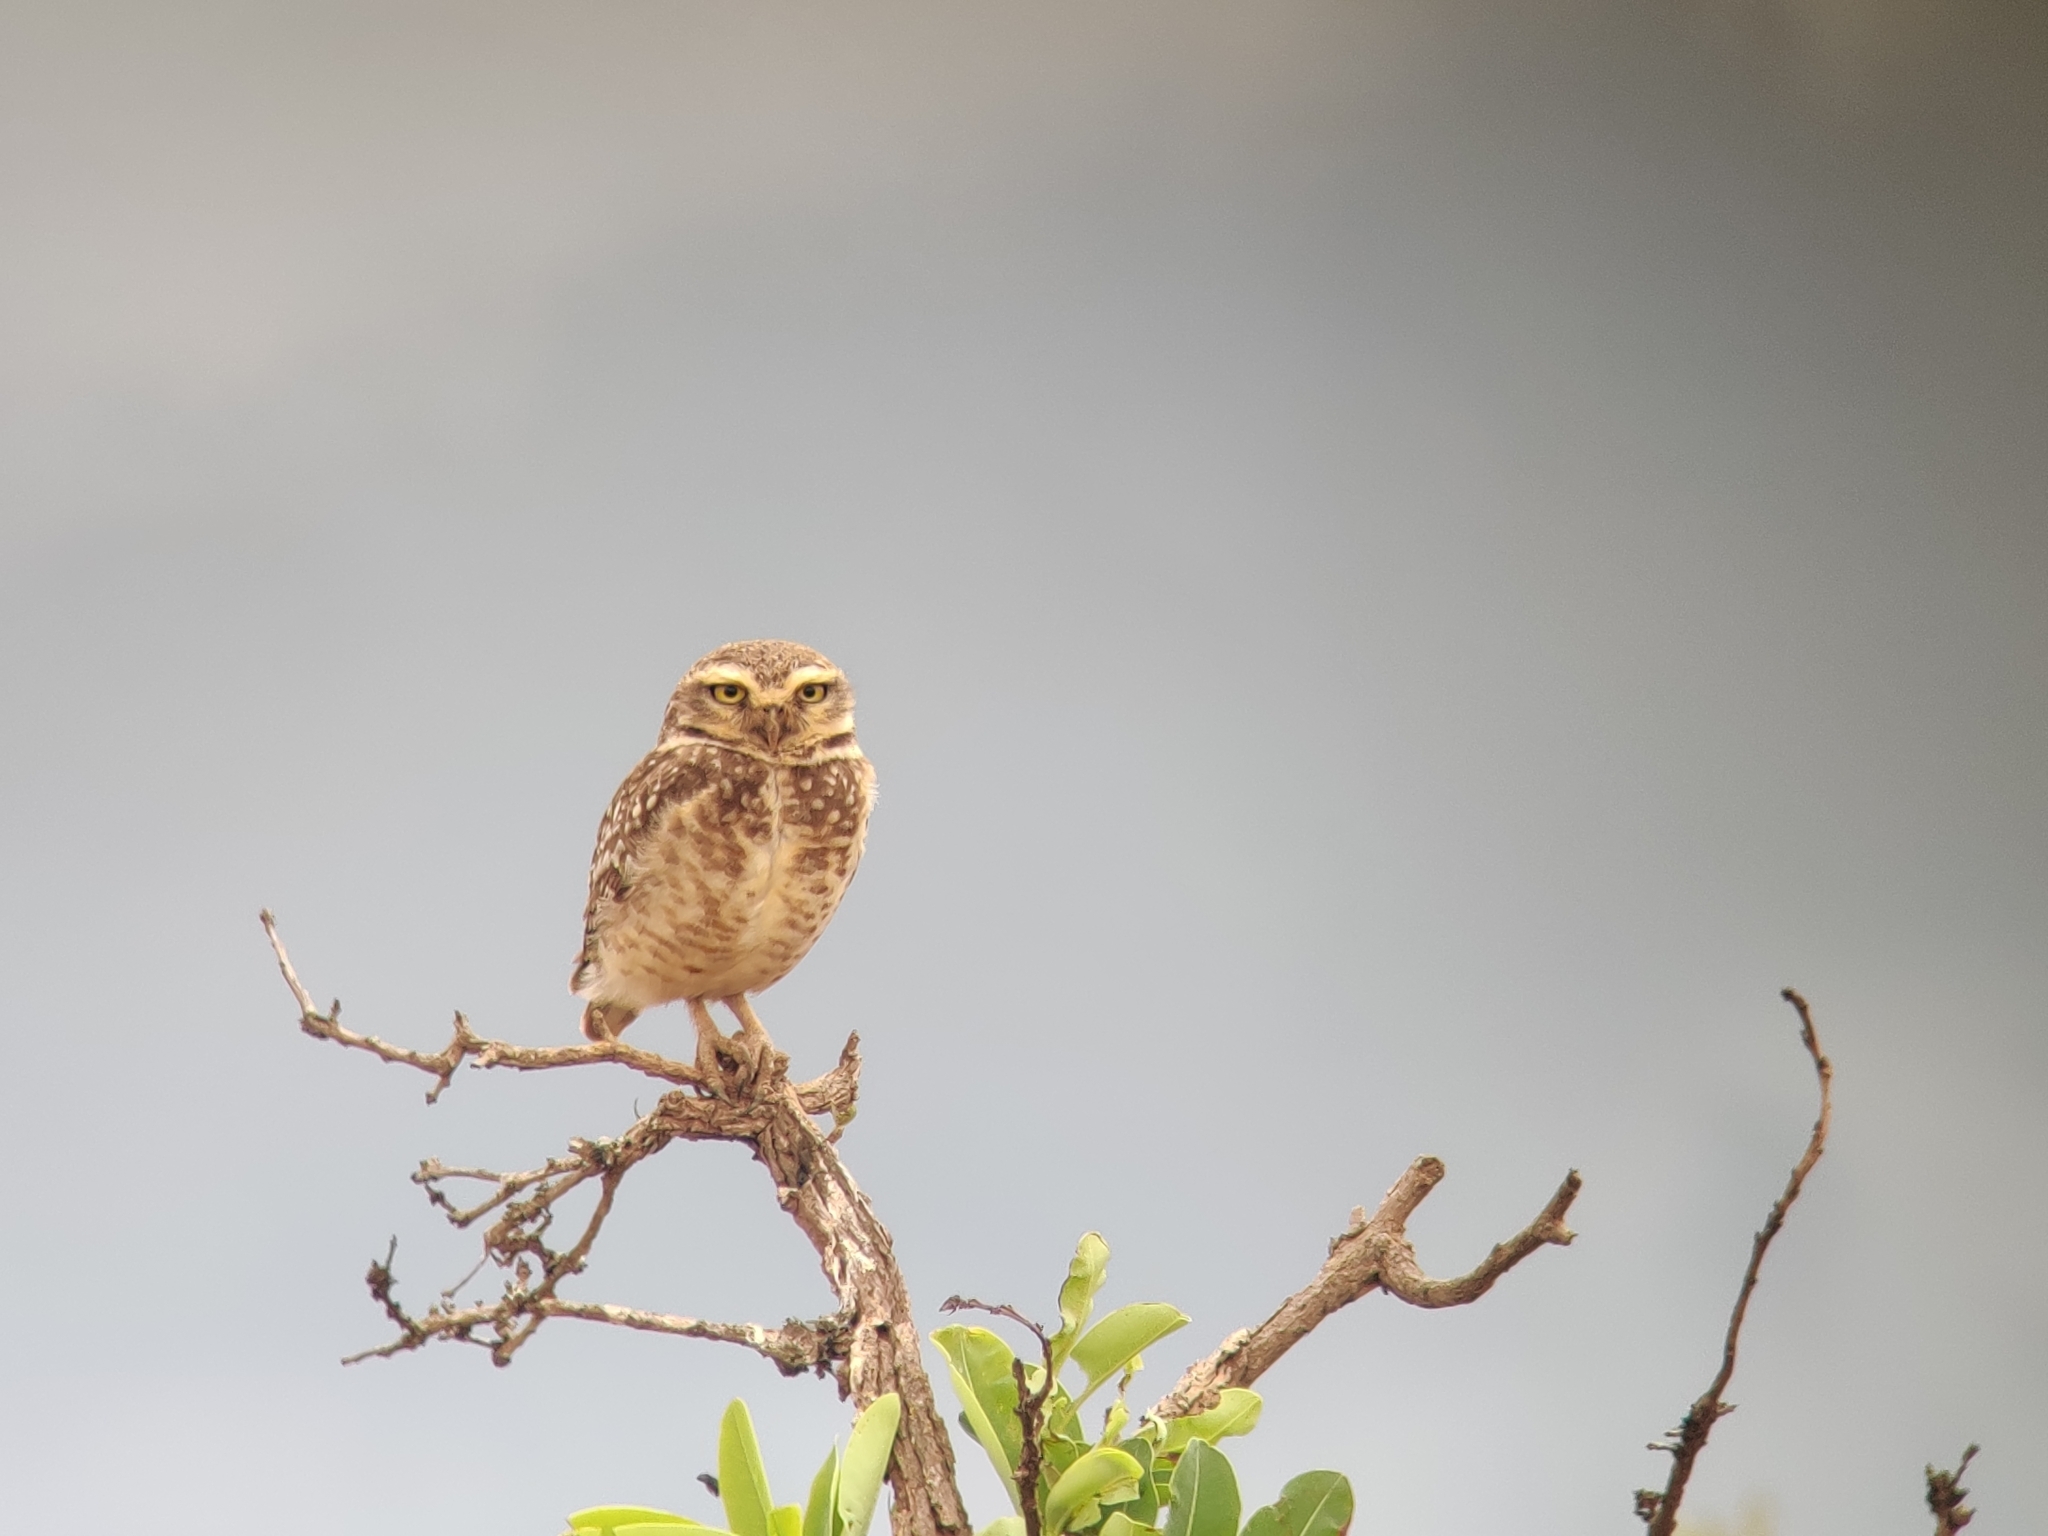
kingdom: Animalia
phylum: Chordata
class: Aves
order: Strigiformes
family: Strigidae
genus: Athene
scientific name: Athene cunicularia
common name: Burrowing owl
